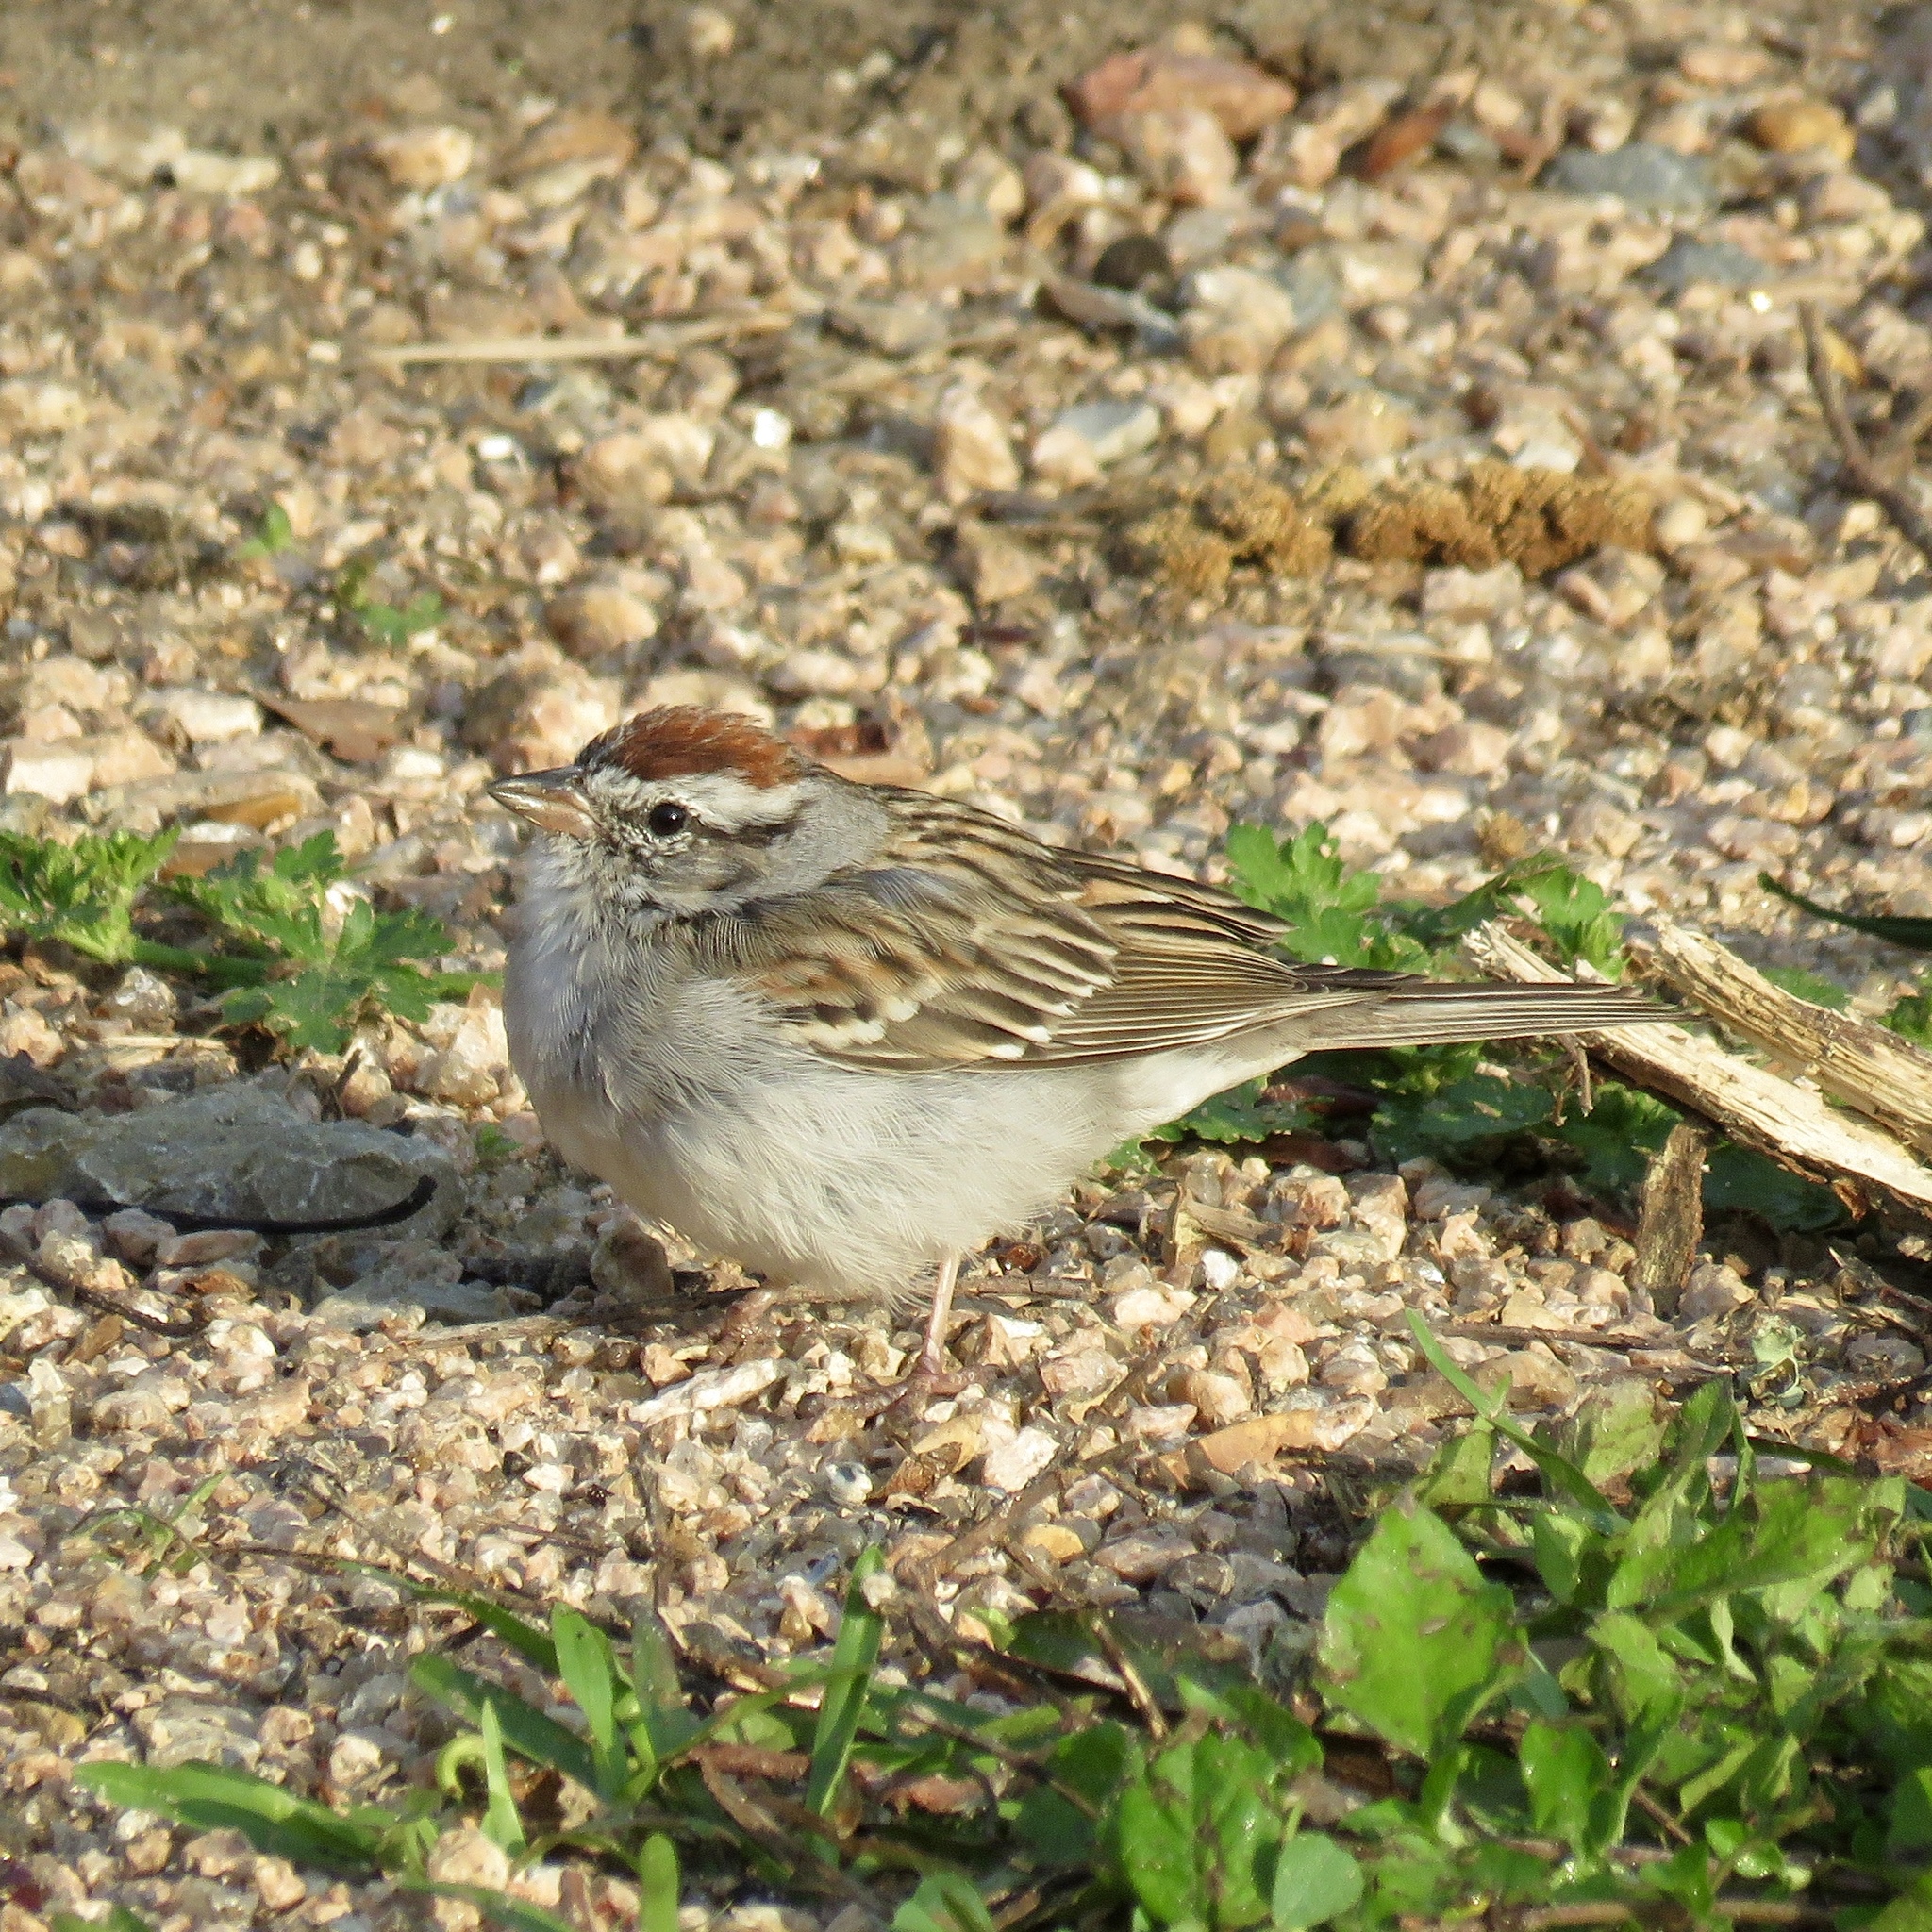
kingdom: Animalia
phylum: Chordata
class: Aves
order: Passeriformes
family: Passerellidae
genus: Spizella
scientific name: Spizella passerina
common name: Chipping sparrow
